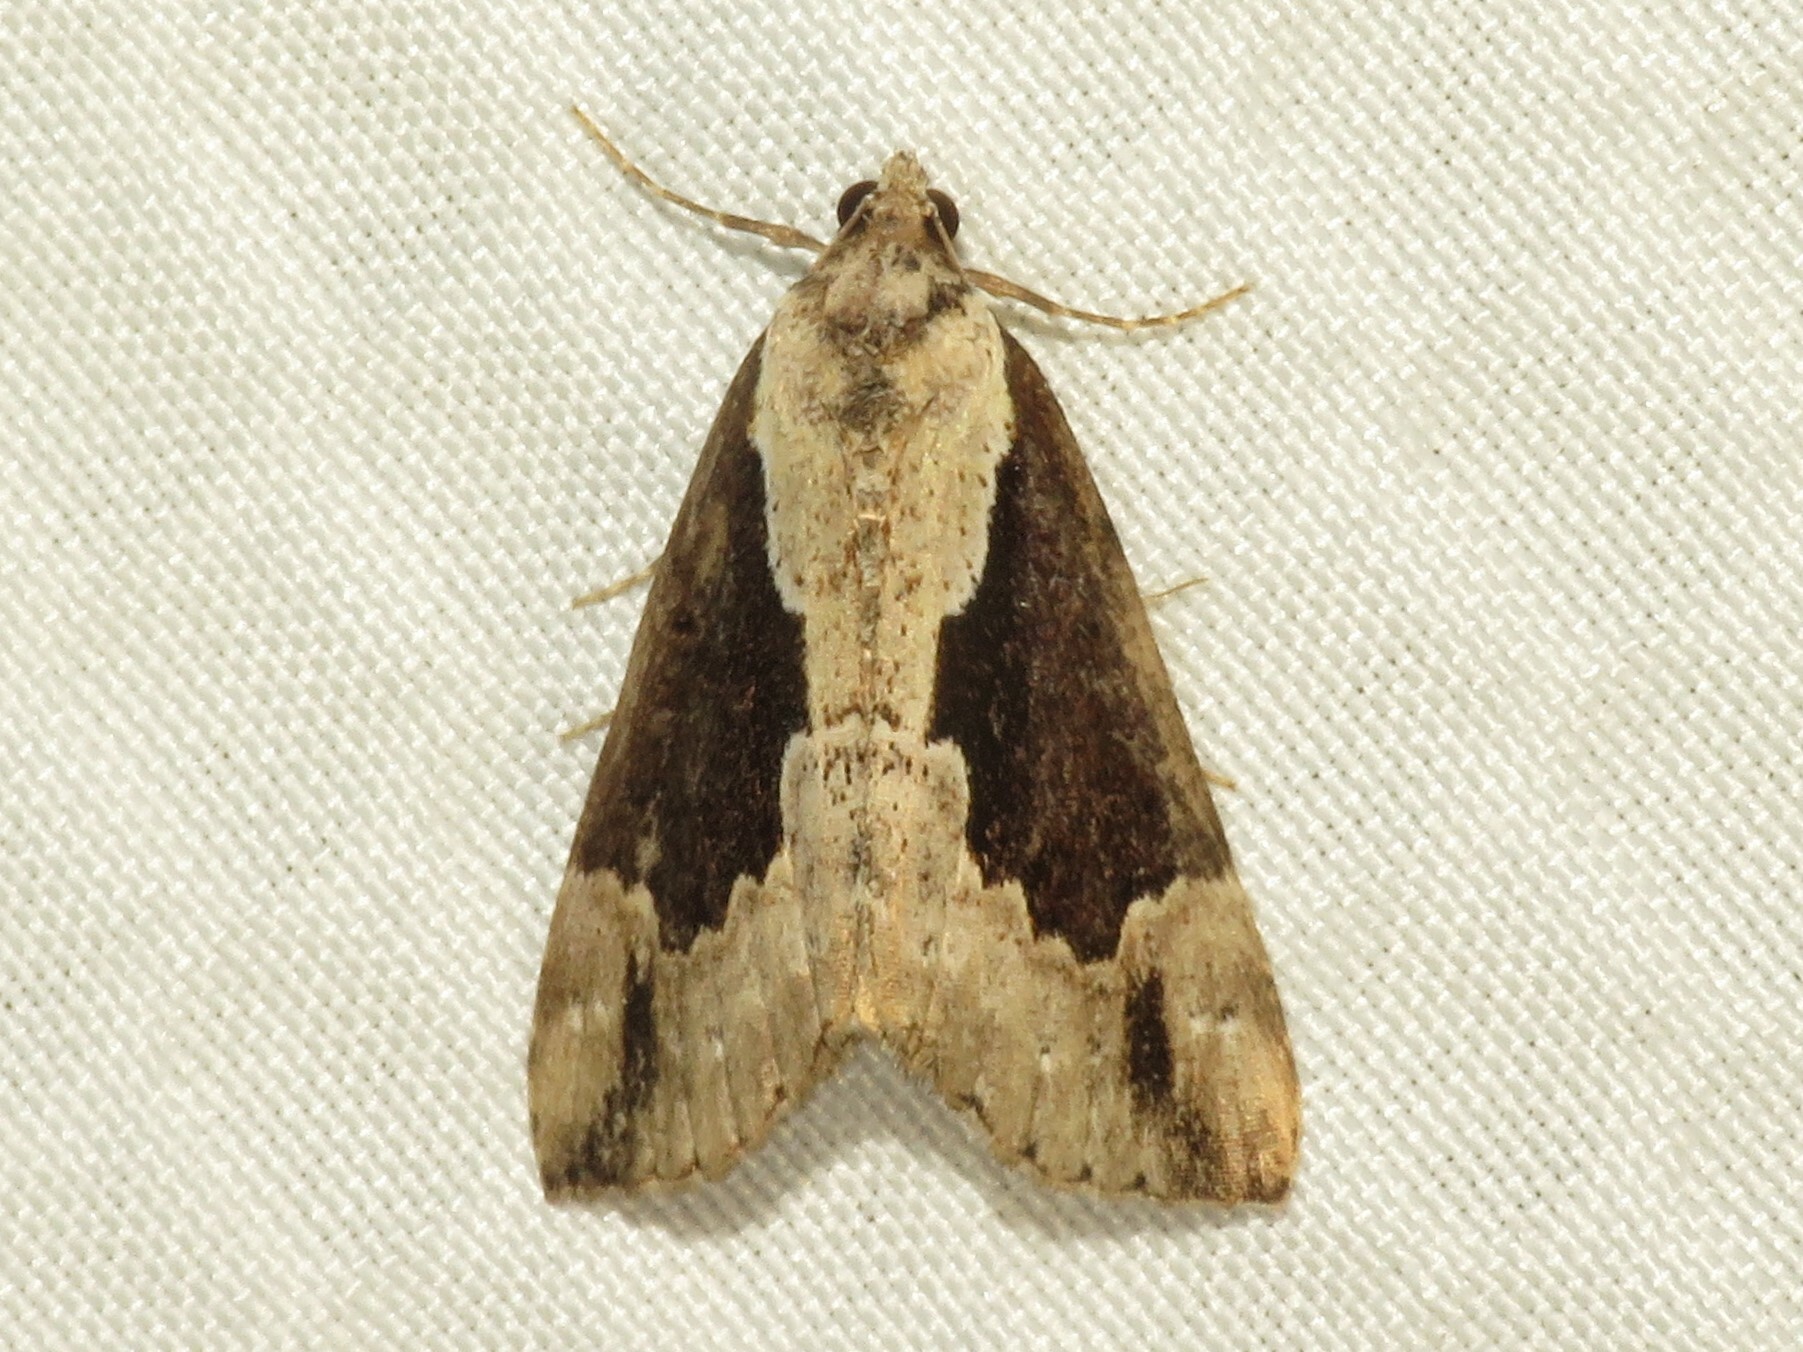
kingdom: Animalia
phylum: Arthropoda
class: Insecta
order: Lepidoptera
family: Erebidae
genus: Hypena
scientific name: Hypena baltimoralis
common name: Baltimore snout
